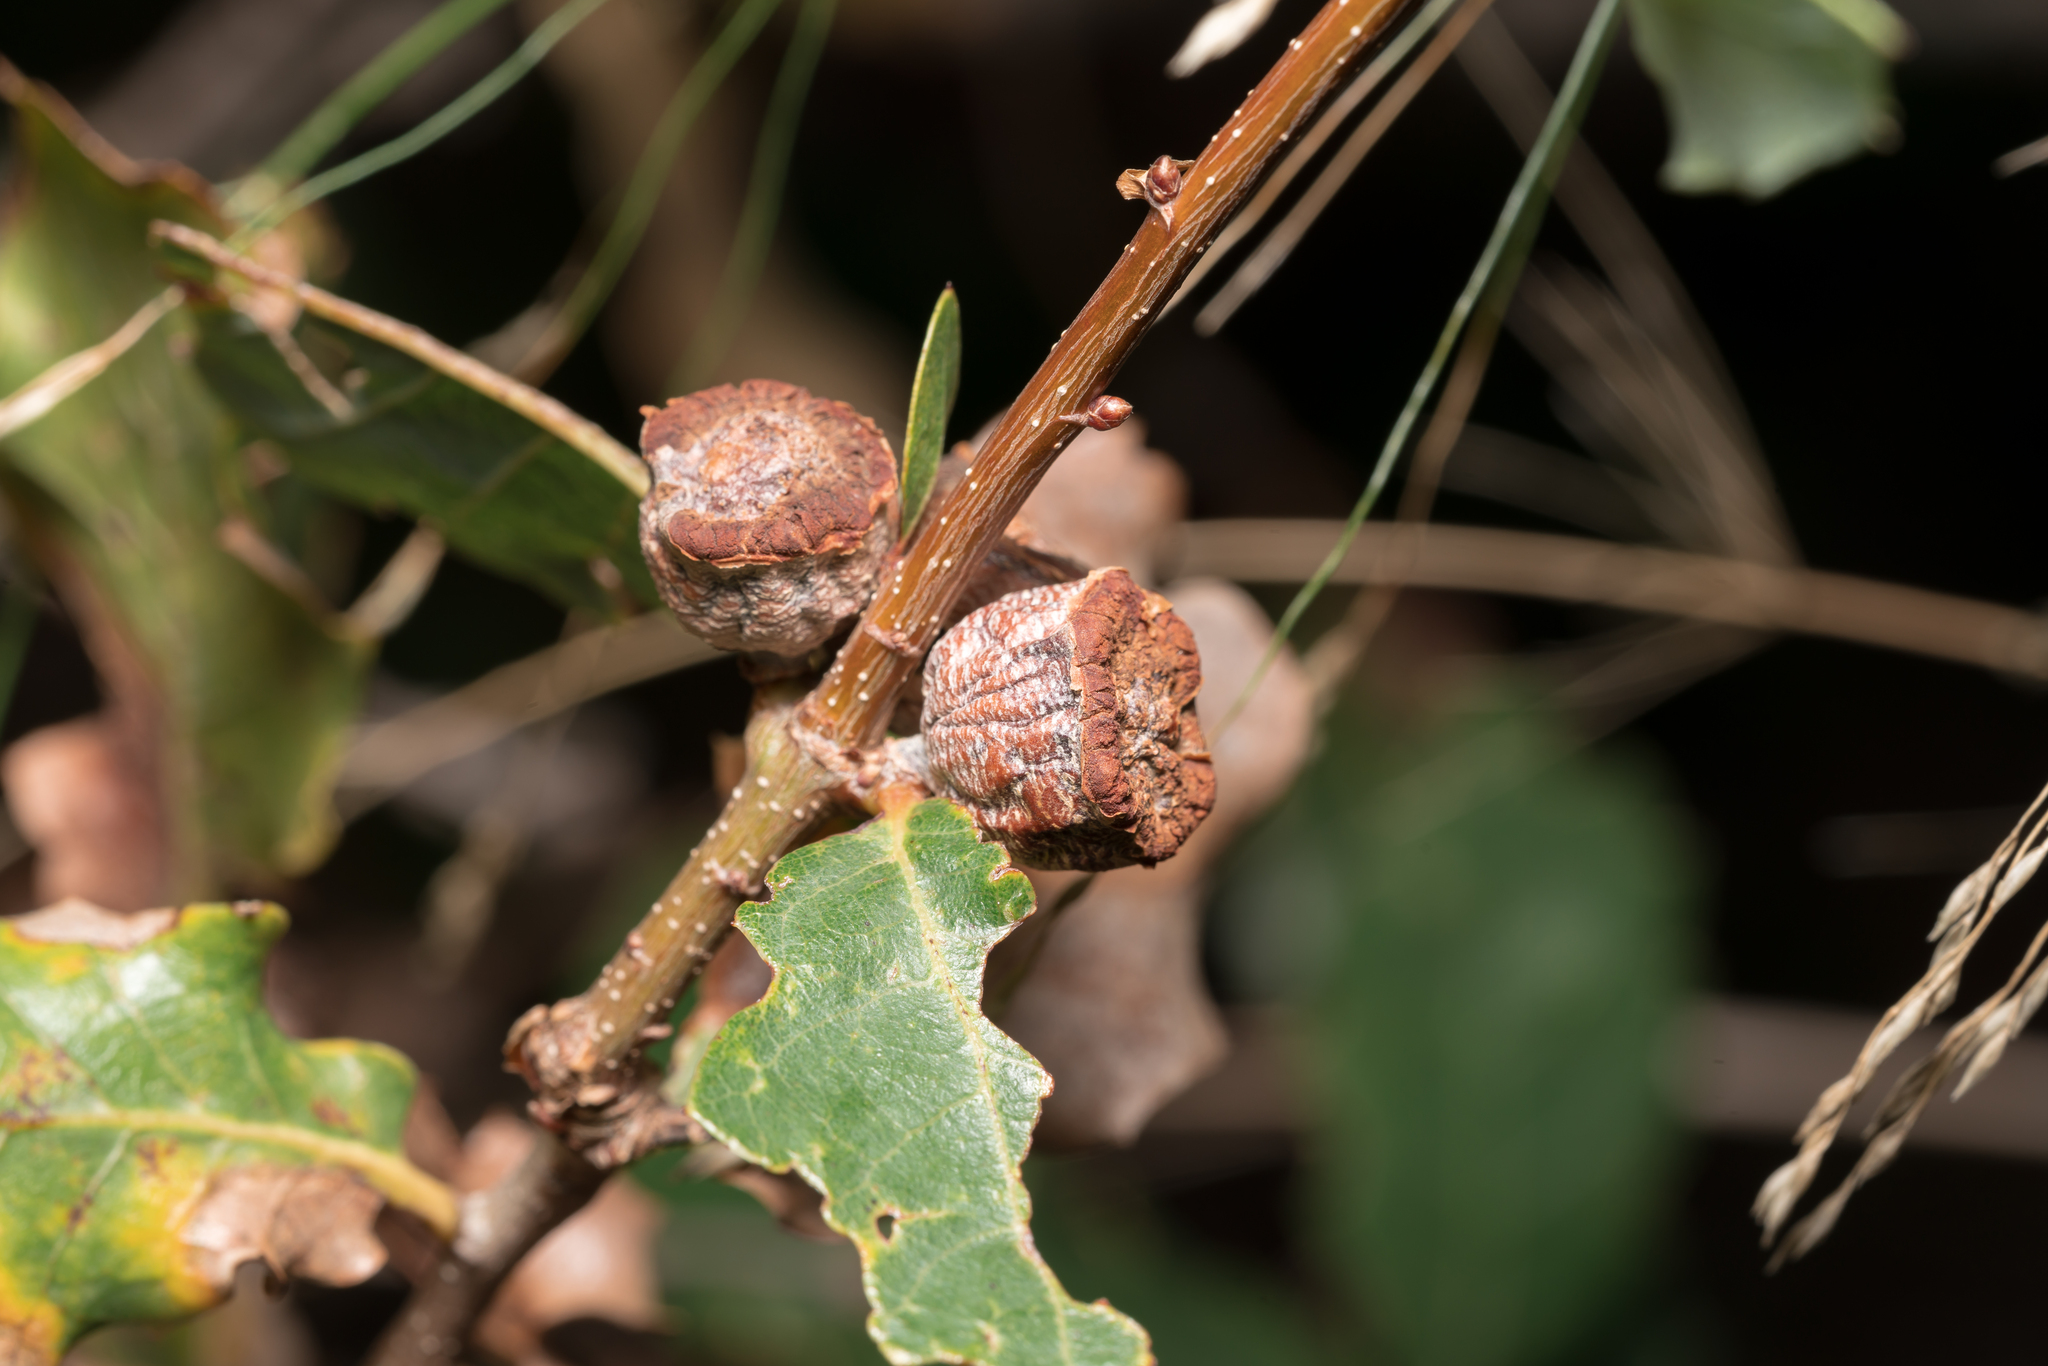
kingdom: Animalia
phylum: Arthropoda
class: Insecta
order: Hymenoptera
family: Cynipidae
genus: Andricus
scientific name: Andricus moreae
